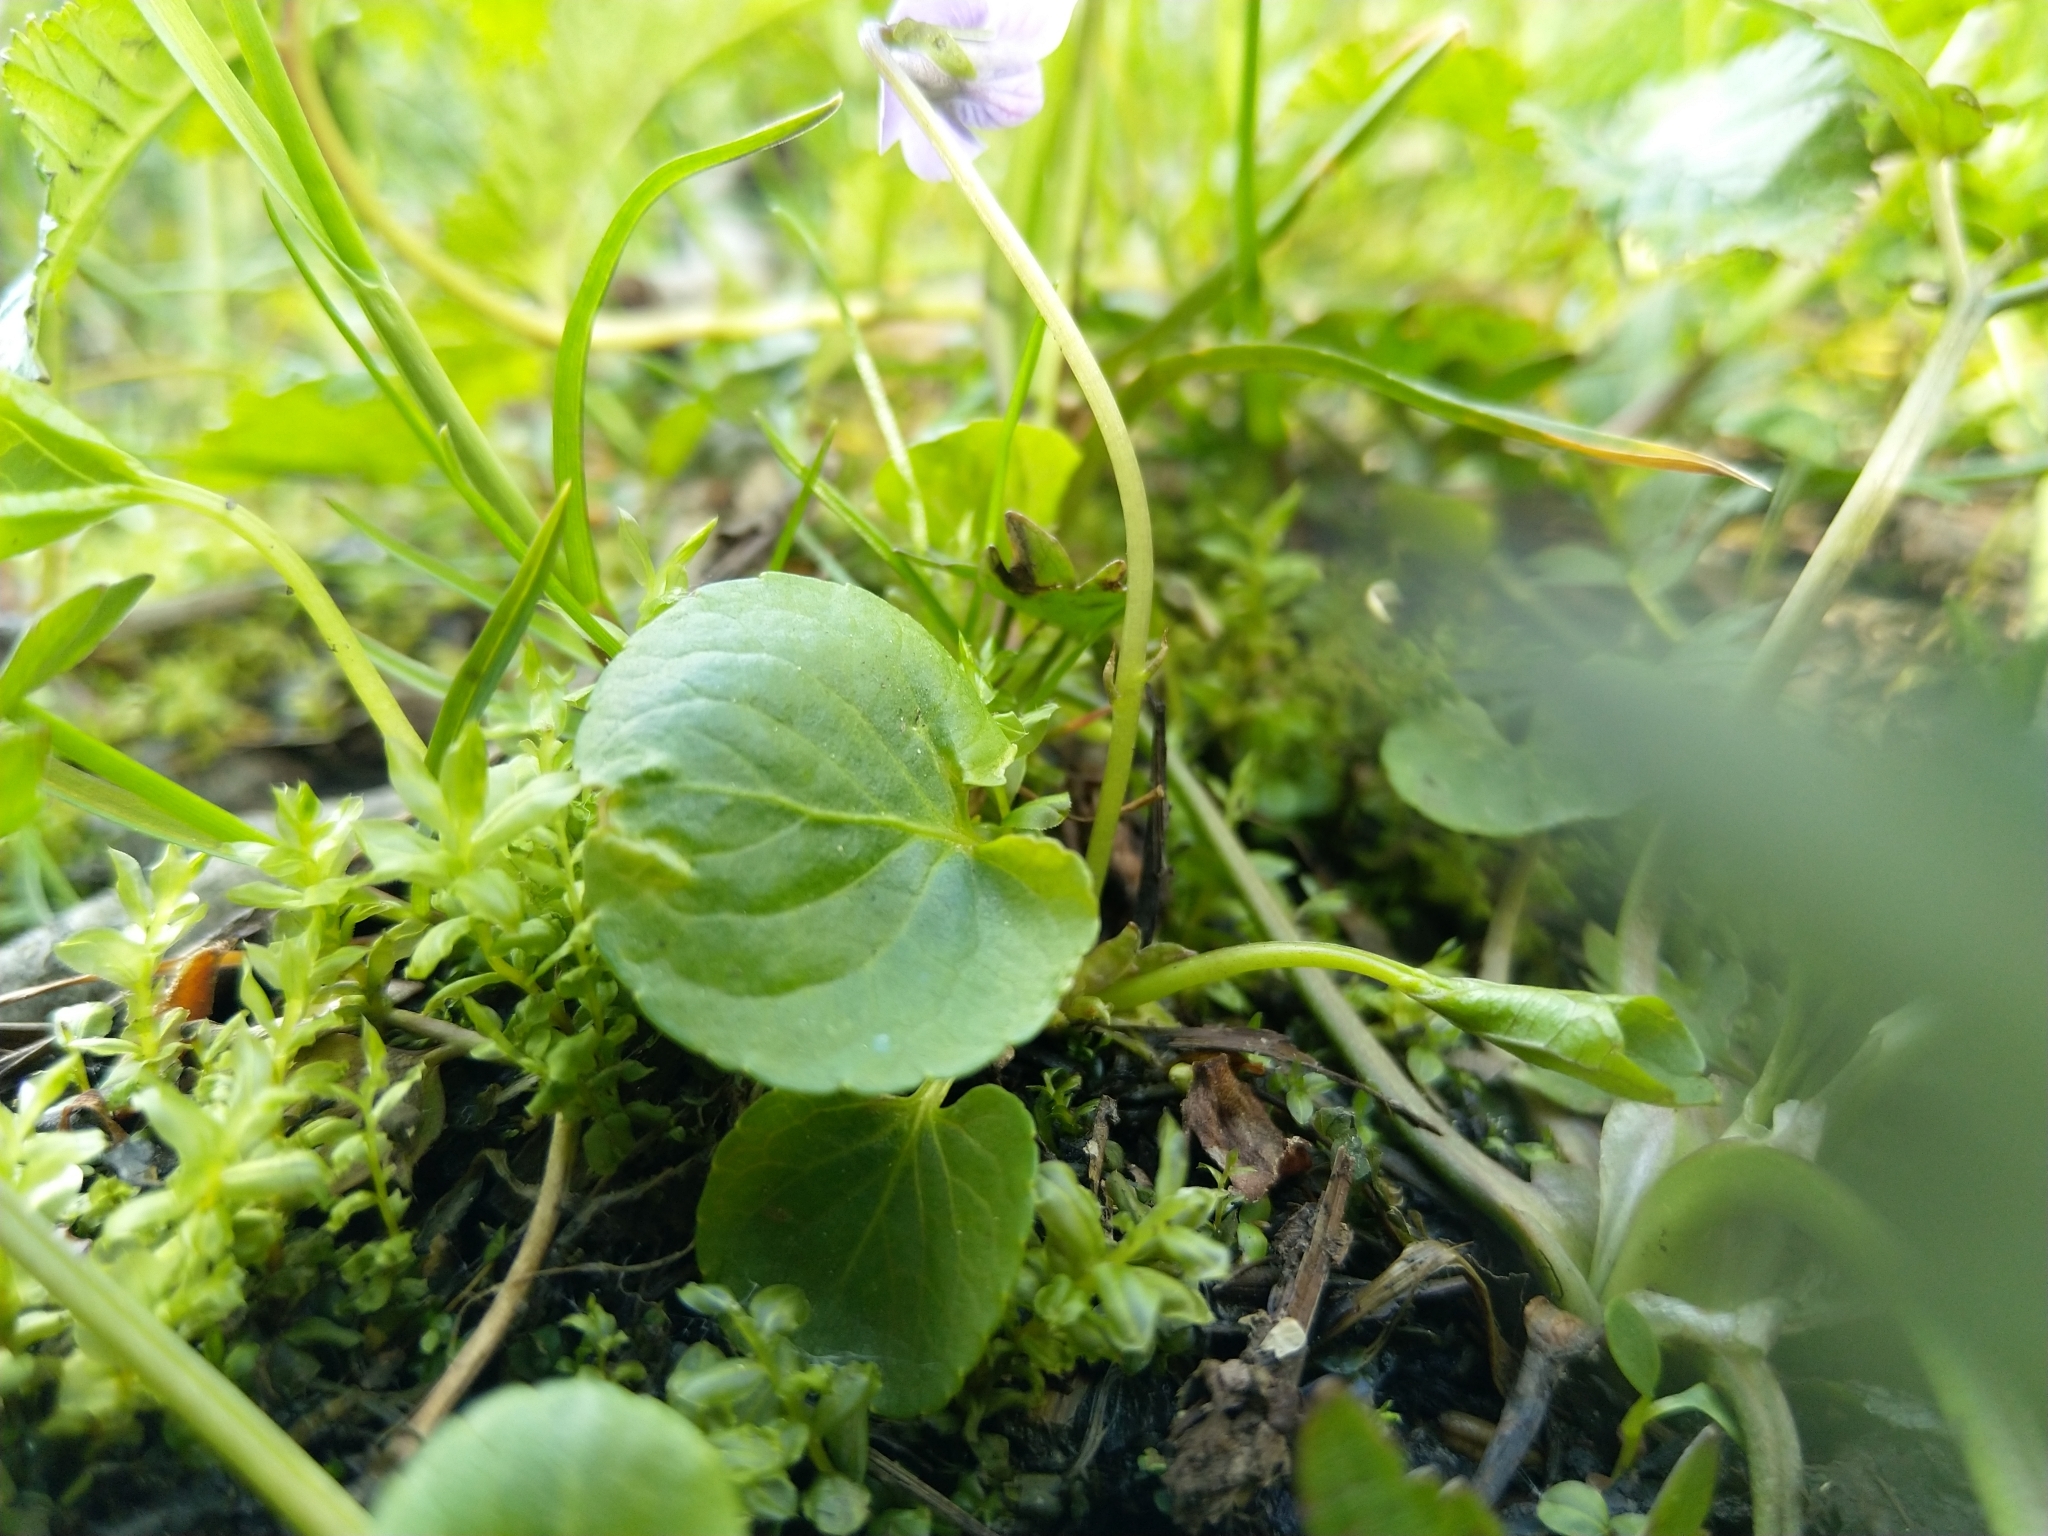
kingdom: Plantae
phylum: Tracheophyta
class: Magnoliopsida
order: Malpighiales
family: Violaceae
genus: Viola
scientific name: Viola palustris
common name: Marsh violet
